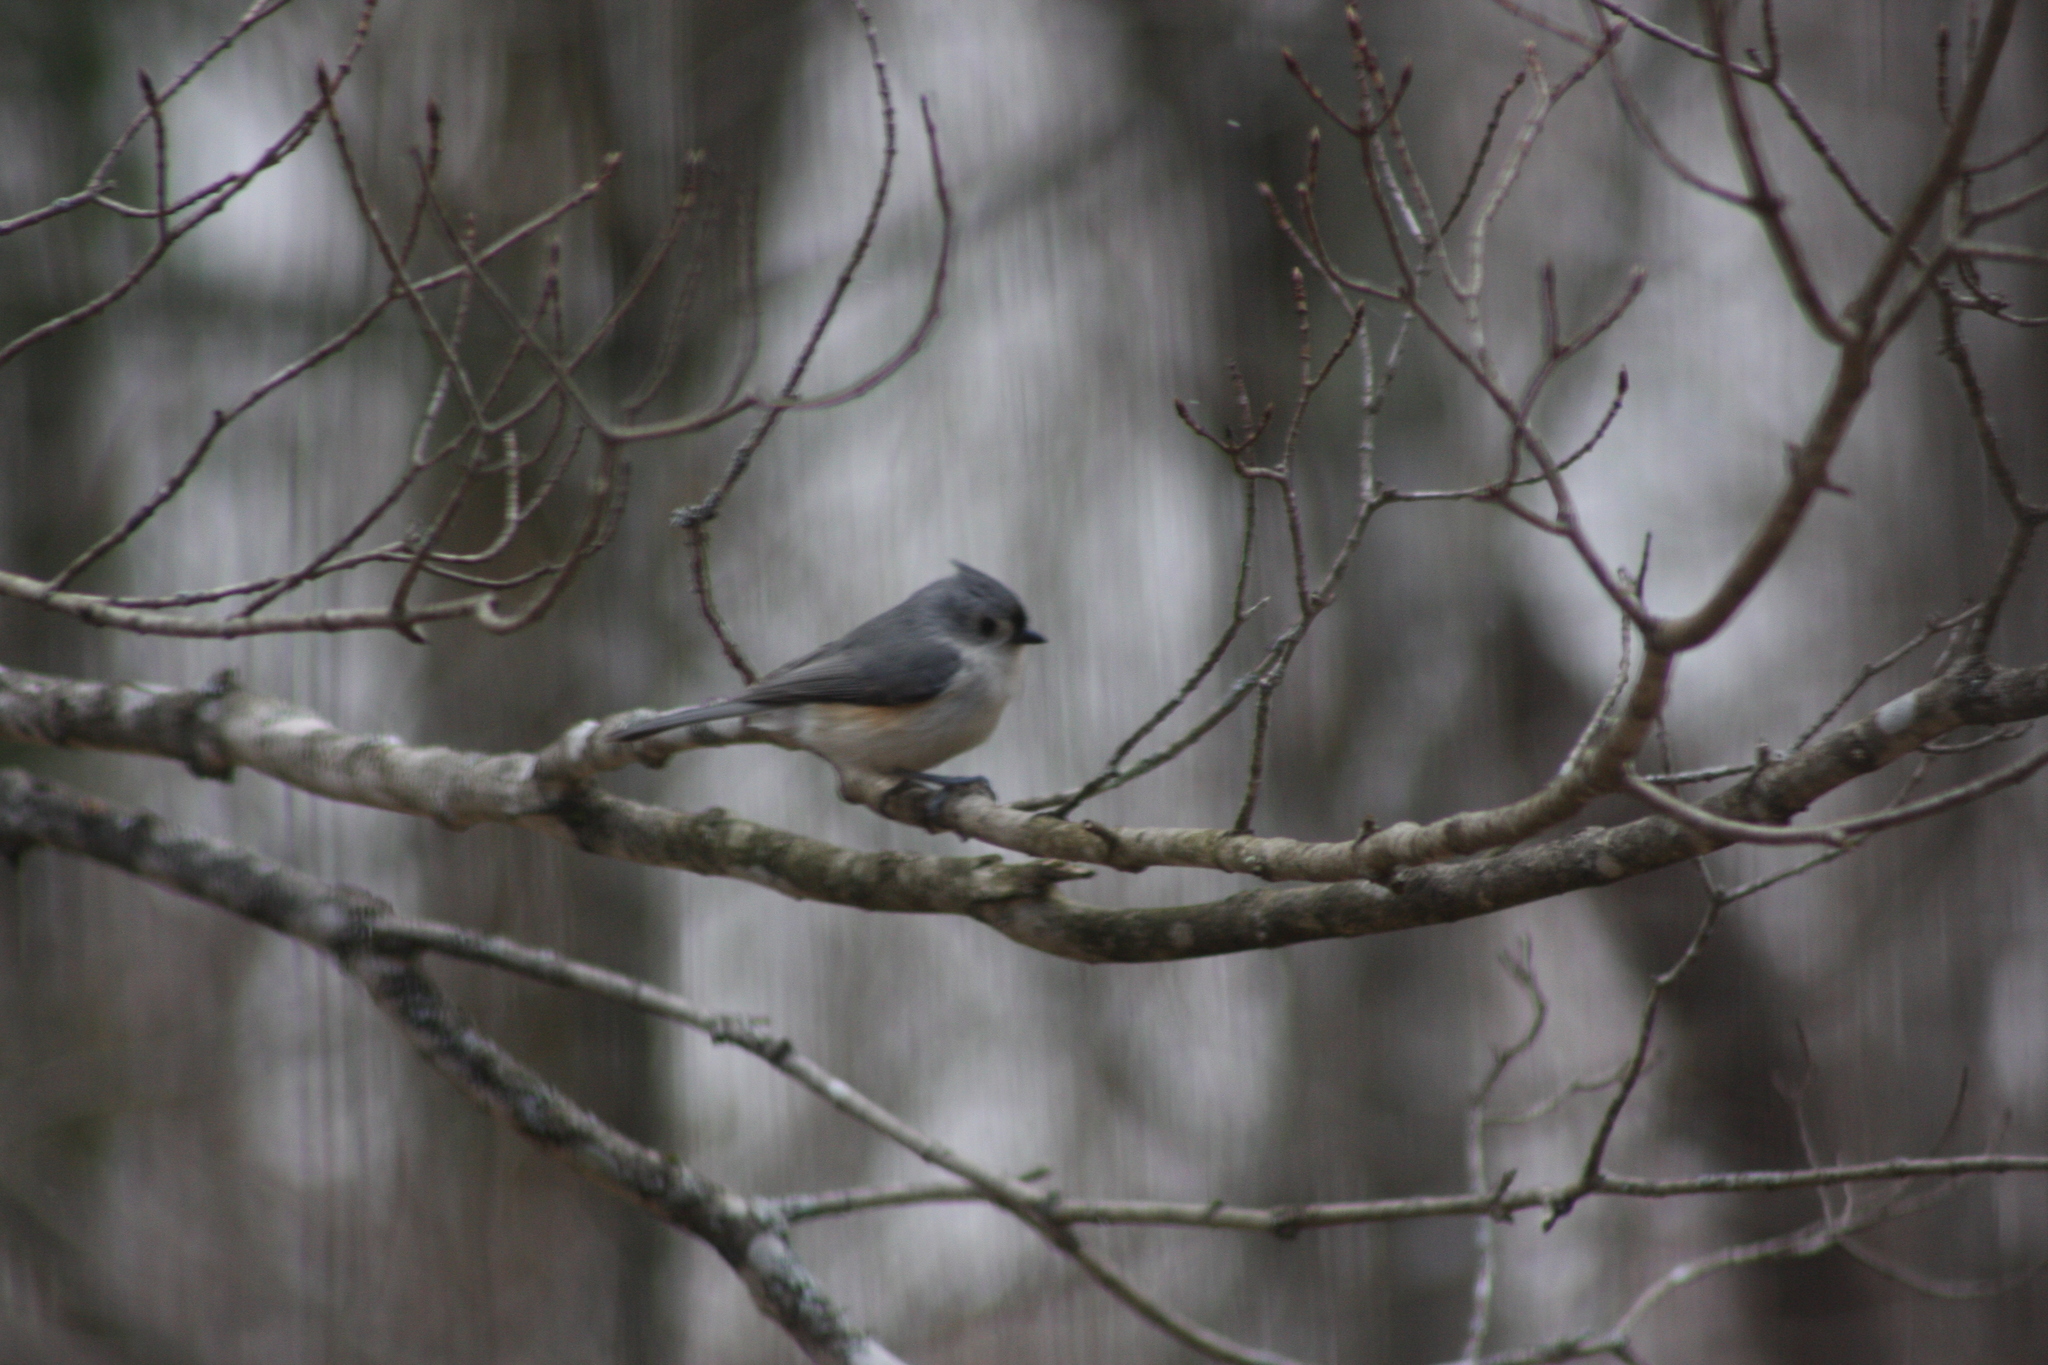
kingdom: Animalia
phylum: Chordata
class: Aves
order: Passeriformes
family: Passerellidae
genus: Junco
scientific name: Junco hyemalis
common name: Dark-eyed junco
